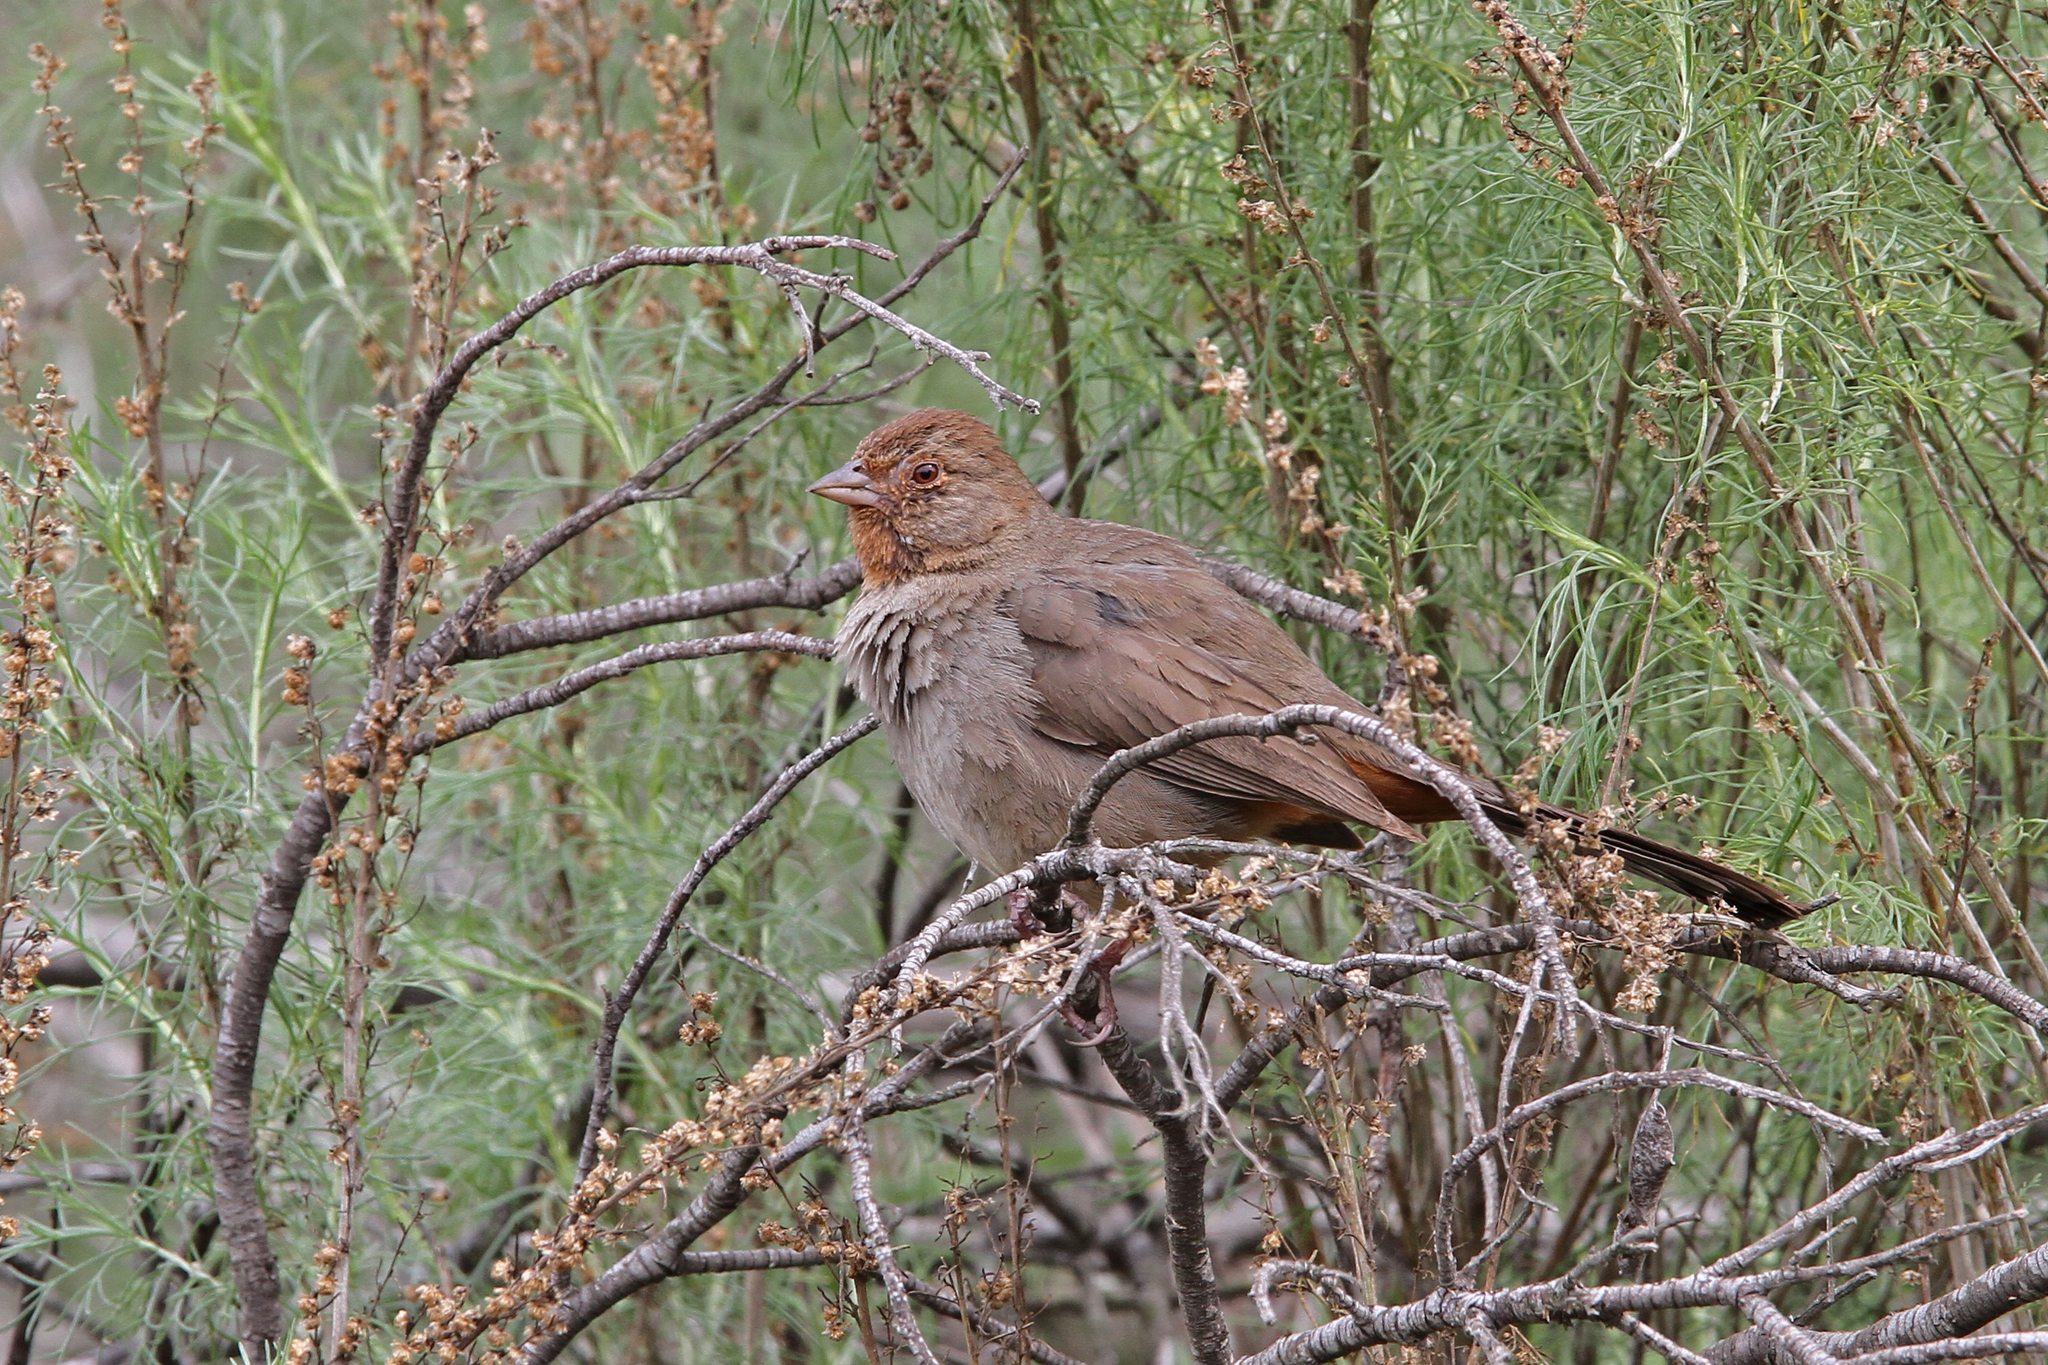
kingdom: Animalia
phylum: Chordata
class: Aves
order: Passeriformes
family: Passerellidae
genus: Melozone
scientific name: Melozone crissalis
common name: California towhee
